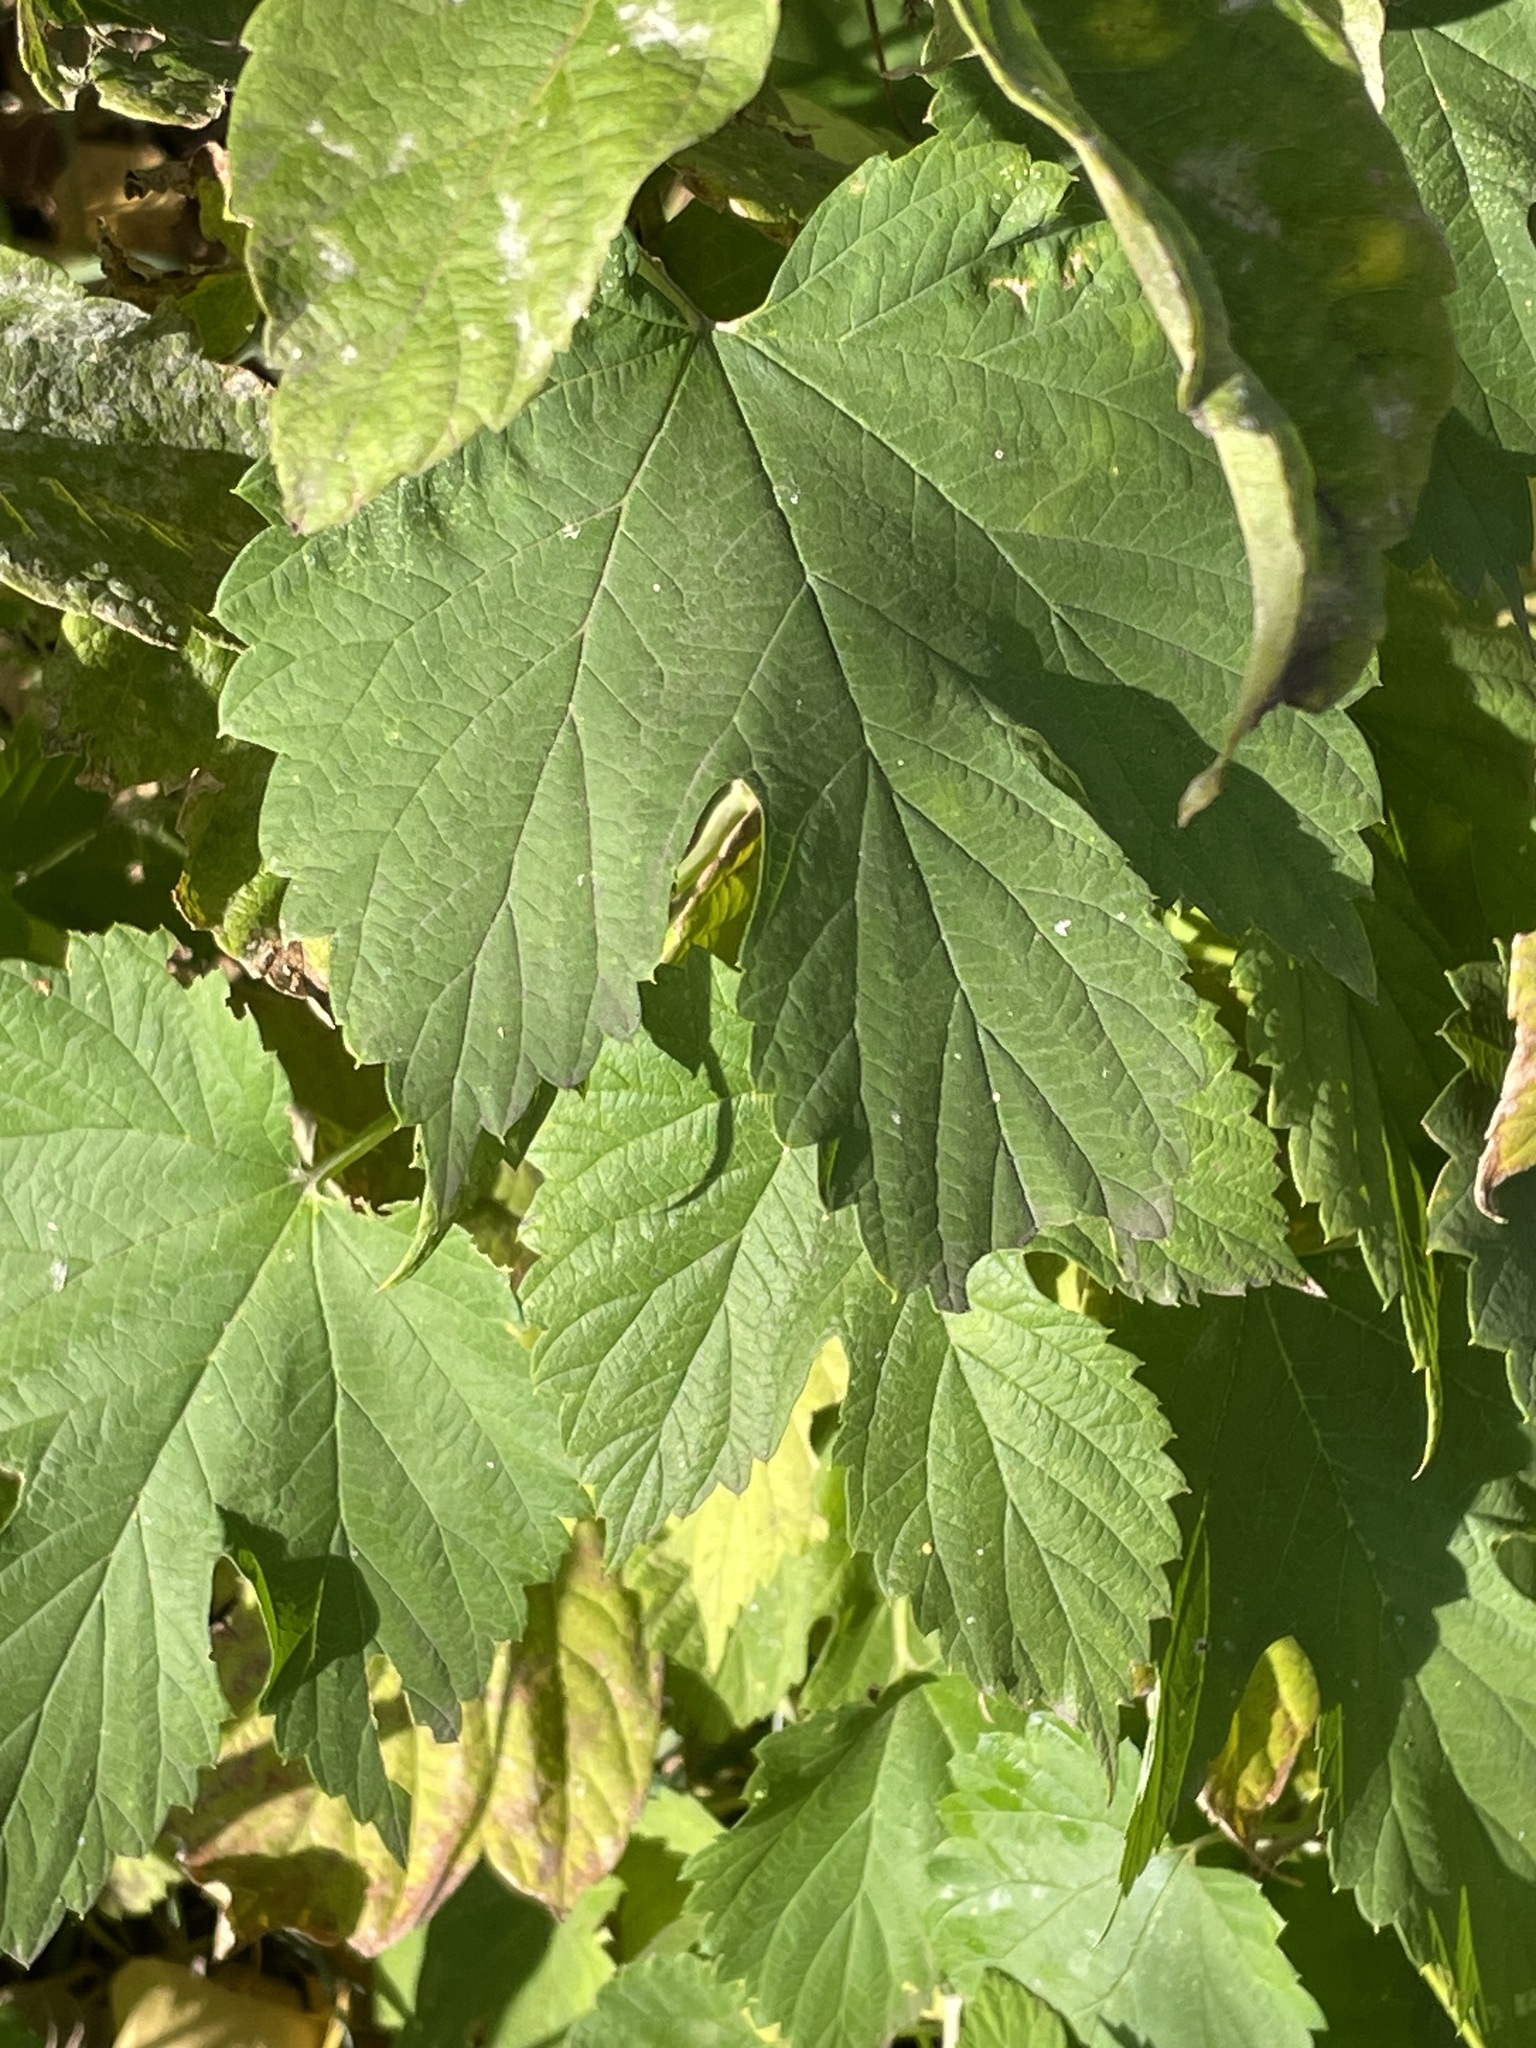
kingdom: Plantae
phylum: Tracheophyta
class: Magnoliopsida
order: Rosales
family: Cannabaceae
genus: Humulus
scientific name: Humulus lupulus
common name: Hop
